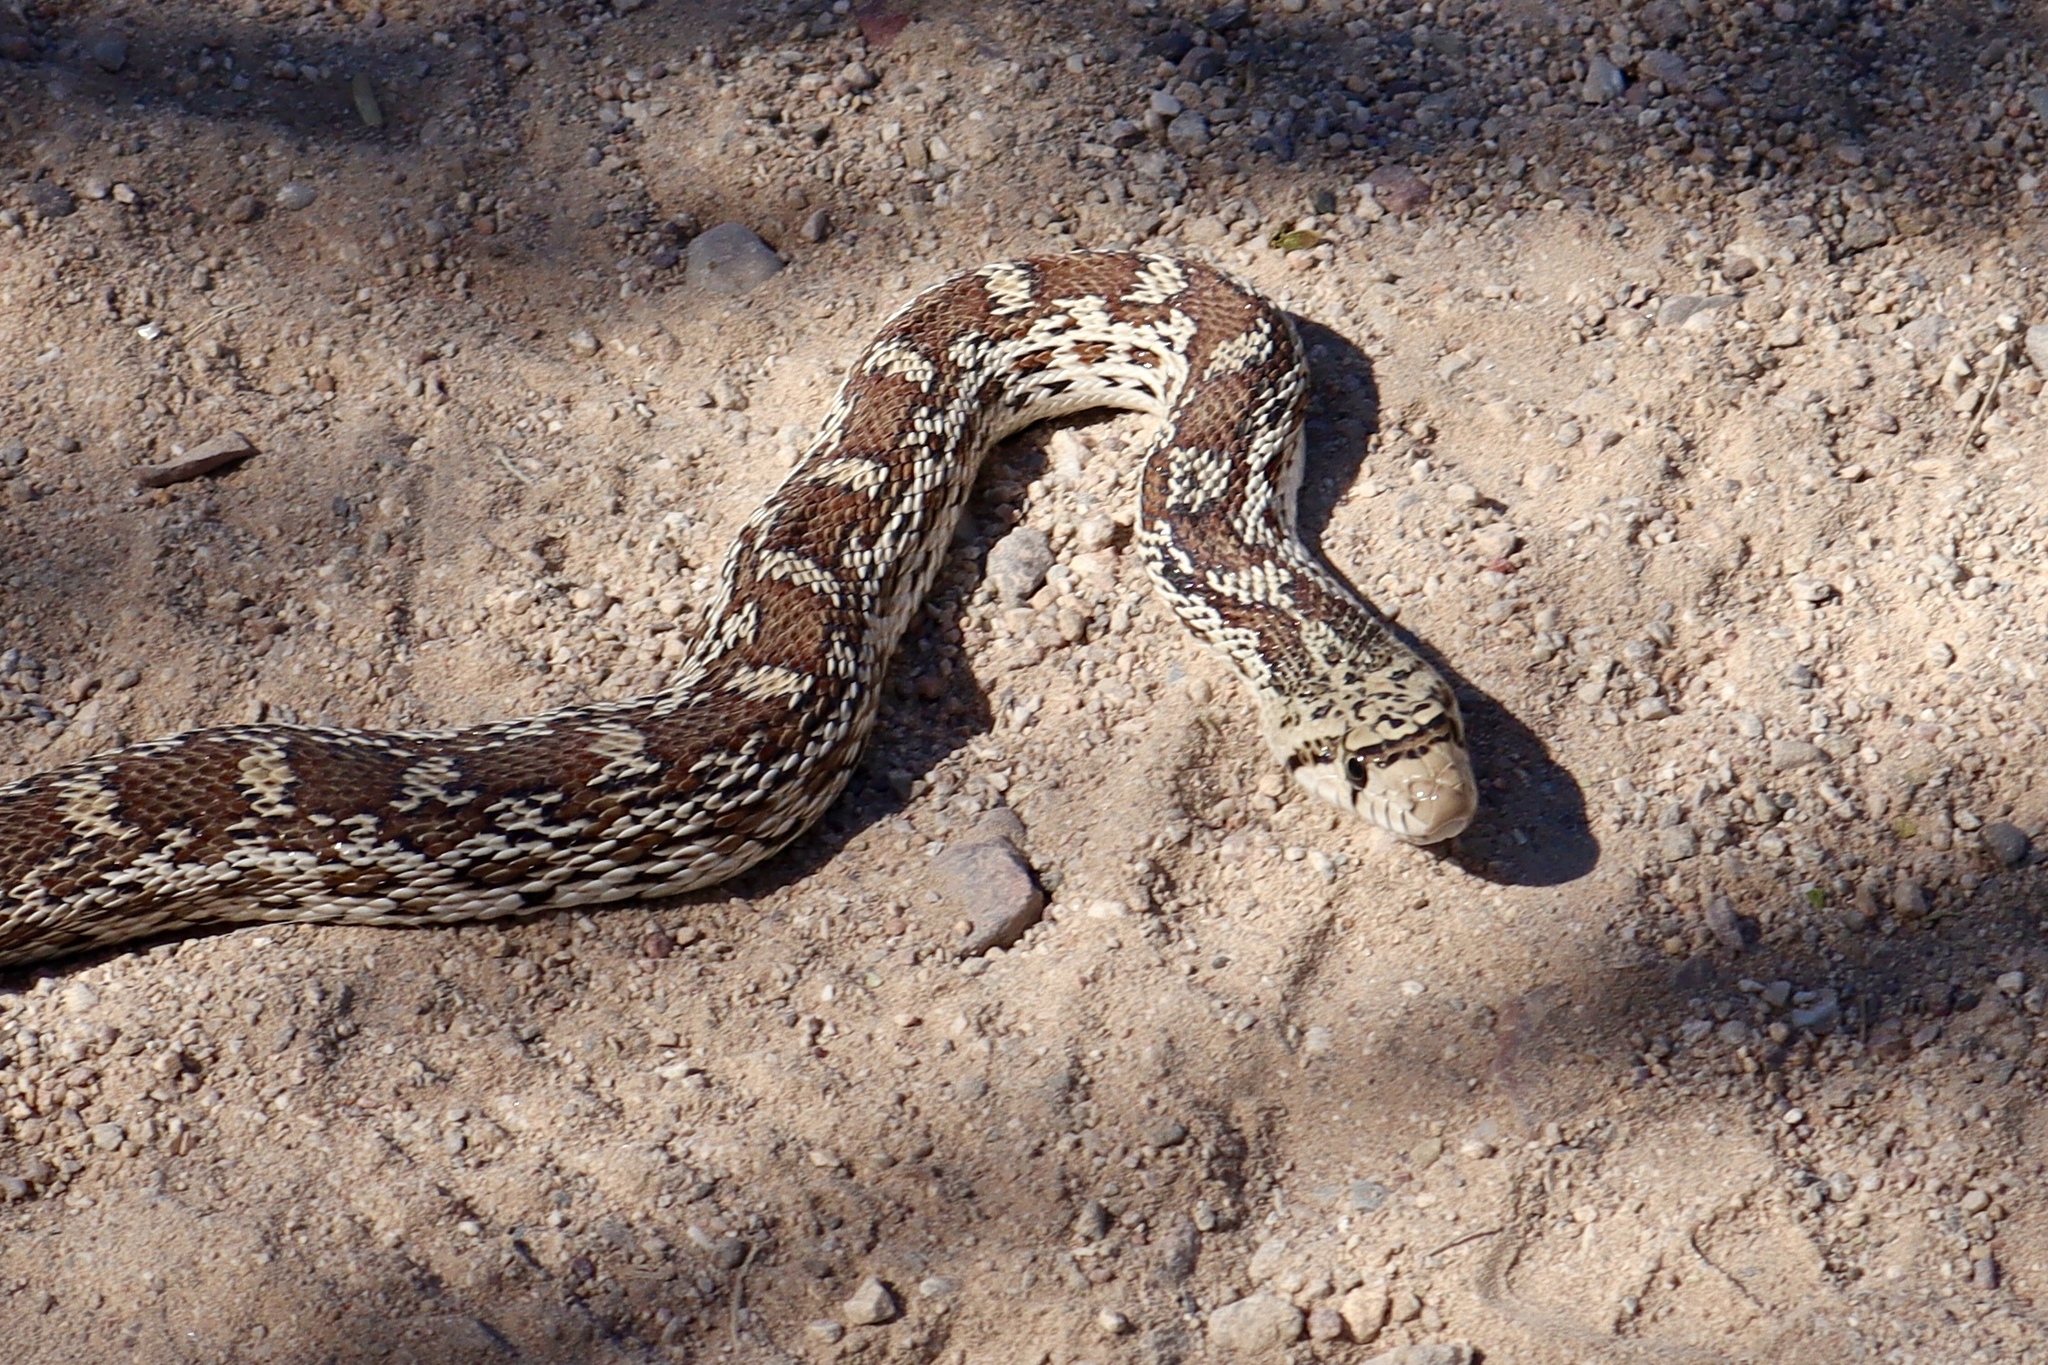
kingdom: Animalia
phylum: Chordata
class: Squamata
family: Colubridae
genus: Pituophis
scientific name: Pituophis catenifer
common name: Gopher snake
